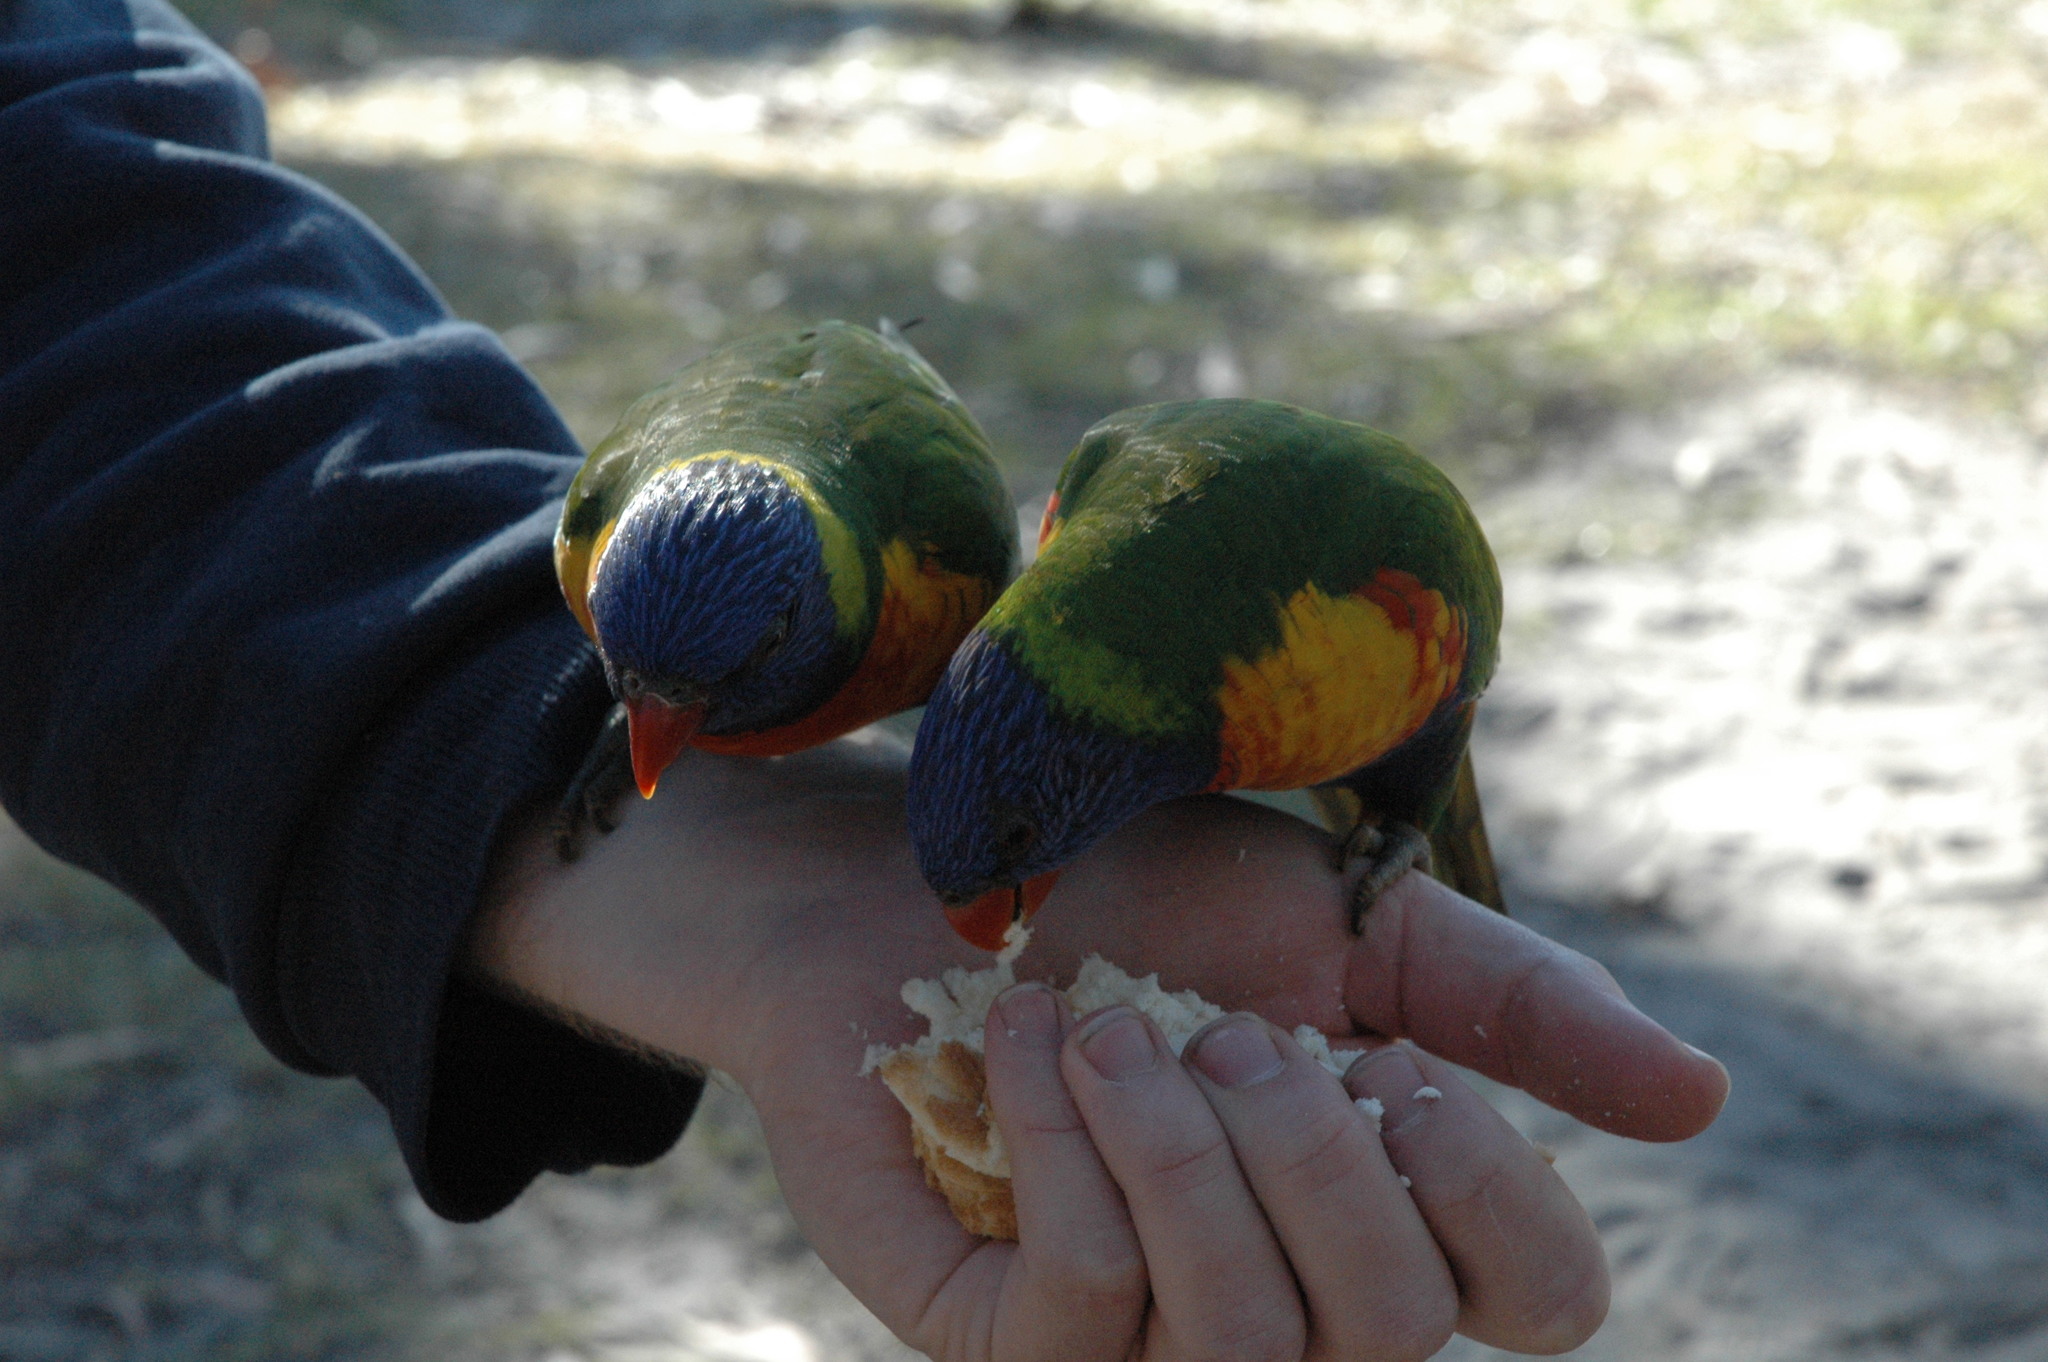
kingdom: Animalia
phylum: Chordata
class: Aves
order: Psittaciformes
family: Psittacidae
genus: Trichoglossus
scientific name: Trichoglossus haematodus
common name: Coconut lorikeet
